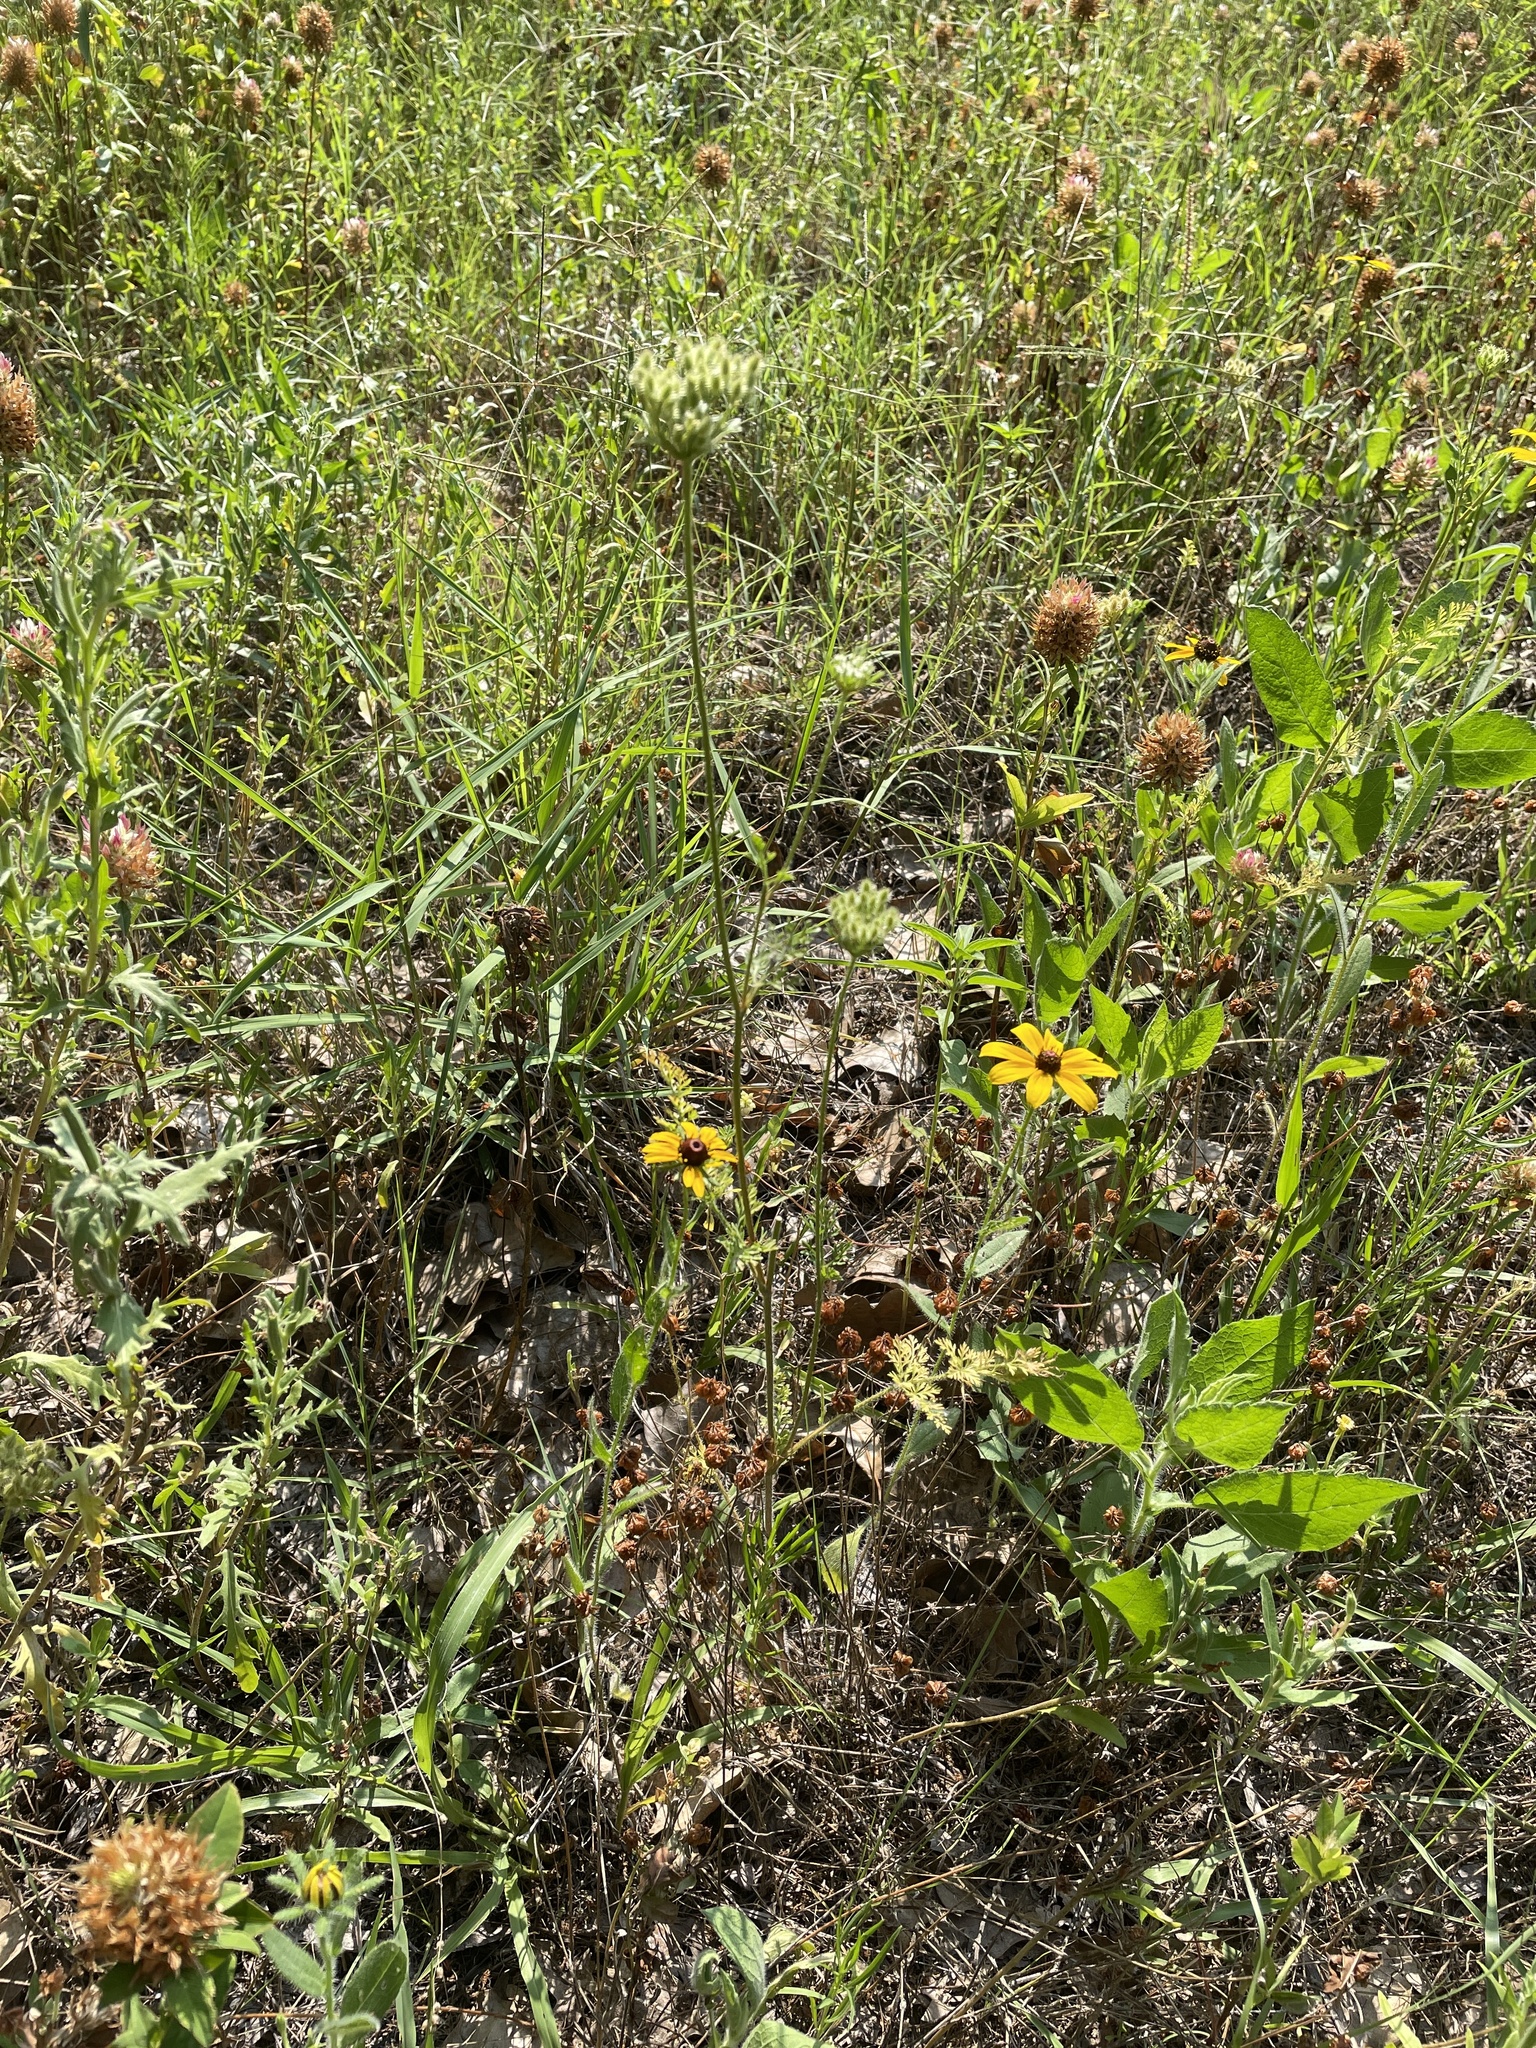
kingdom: Plantae
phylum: Tracheophyta
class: Magnoliopsida
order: Apiales
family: Apiaceae
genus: Daucus
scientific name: Daucus pusillus
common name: Southwest wild carrot
